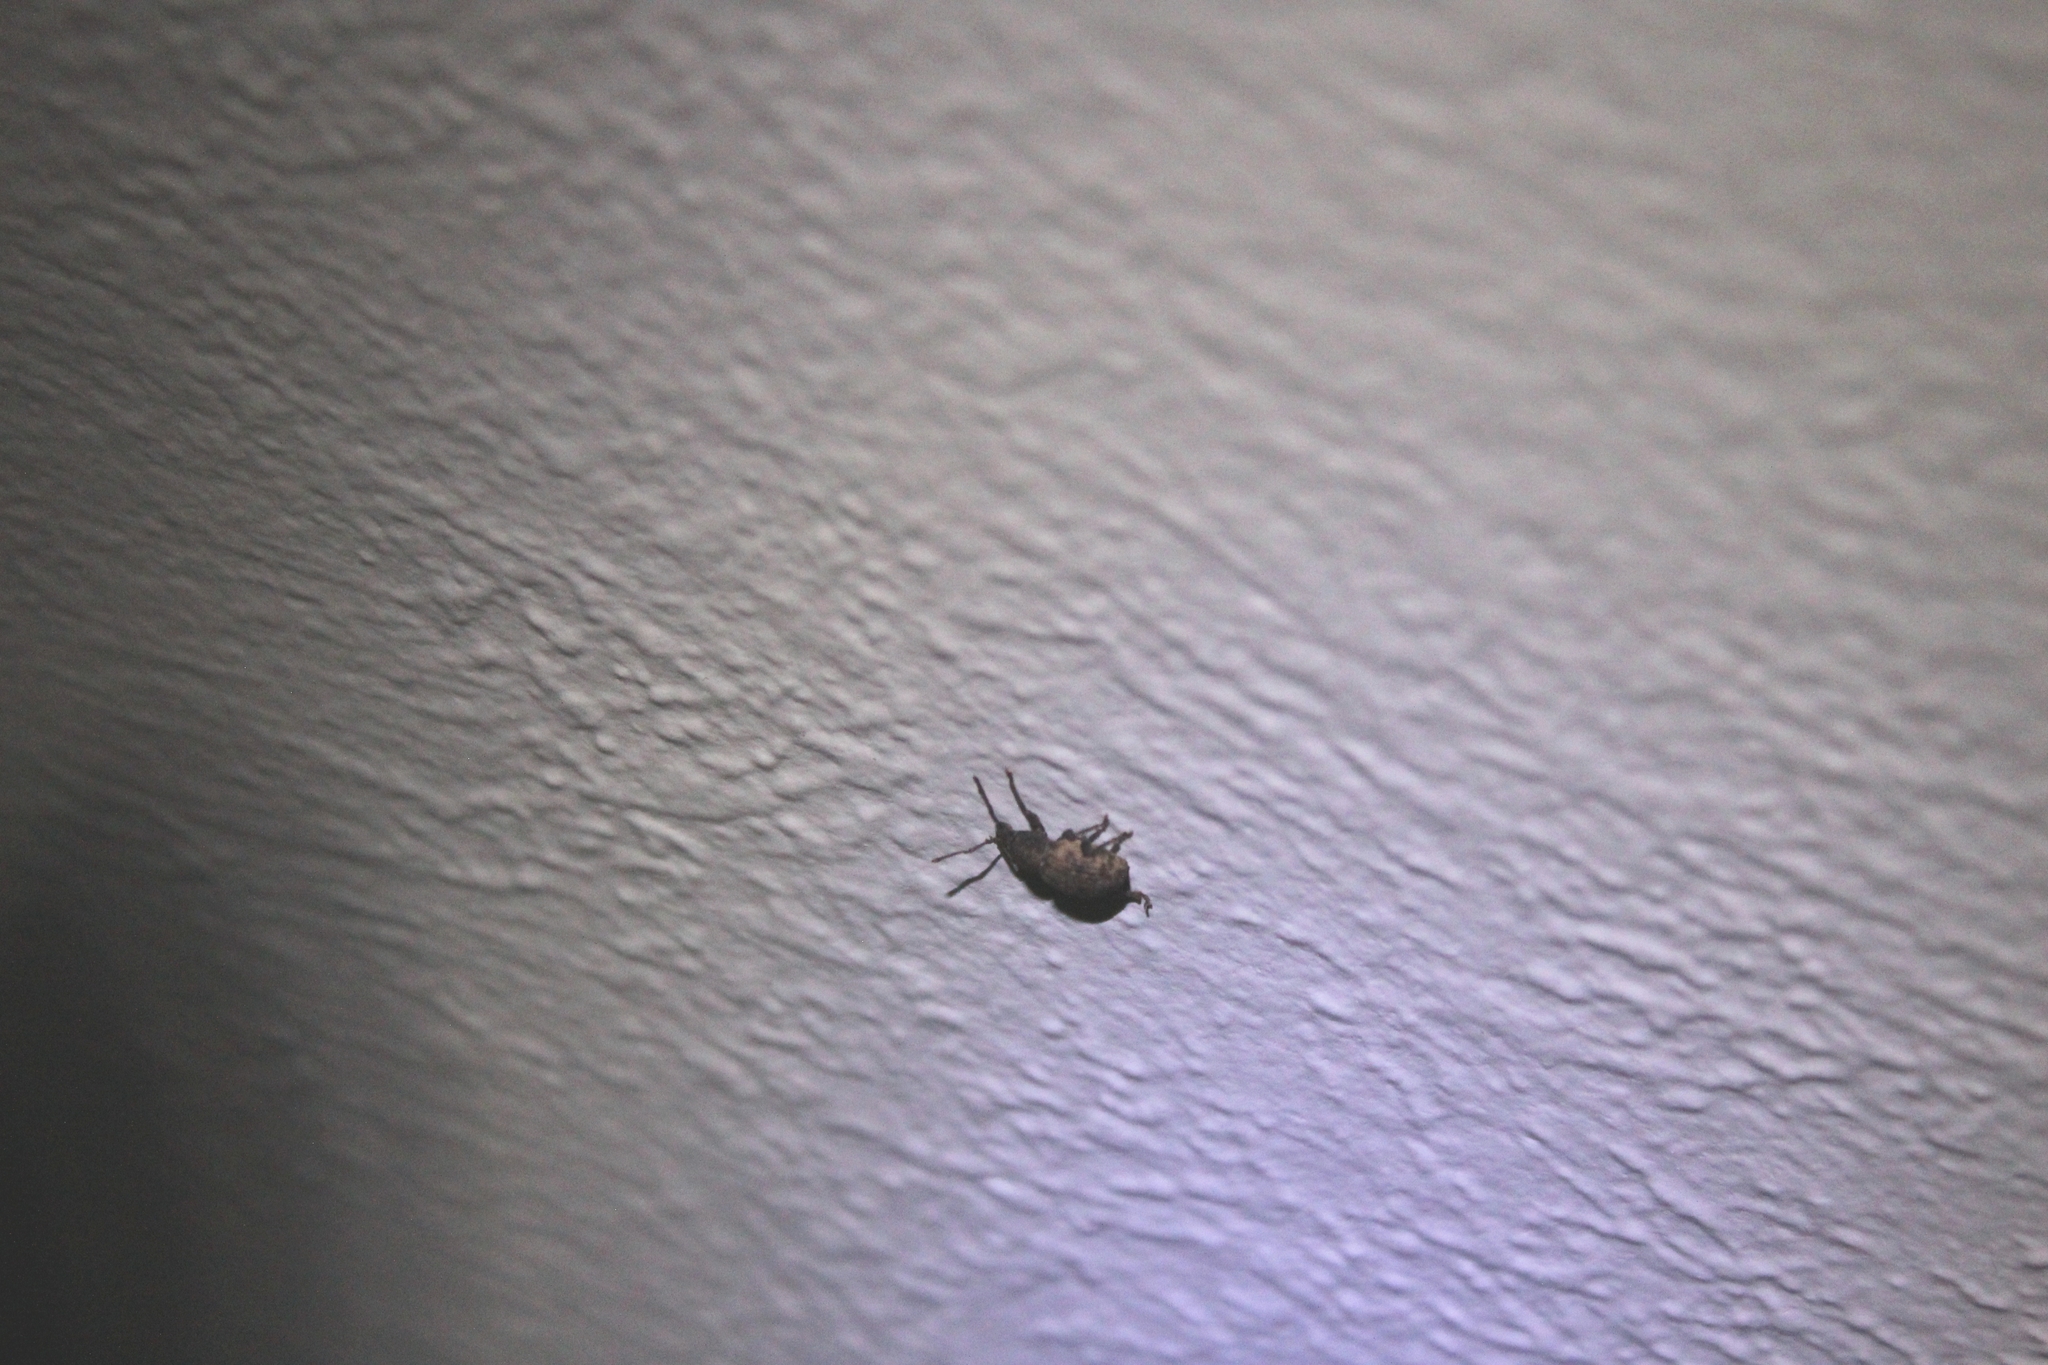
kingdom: Animalia
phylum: Arthropoda
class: Insecta
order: Coleoptera
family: Curculionidae
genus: Otiorhynchus
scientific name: Otiorhynchus raucus
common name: Weevil
